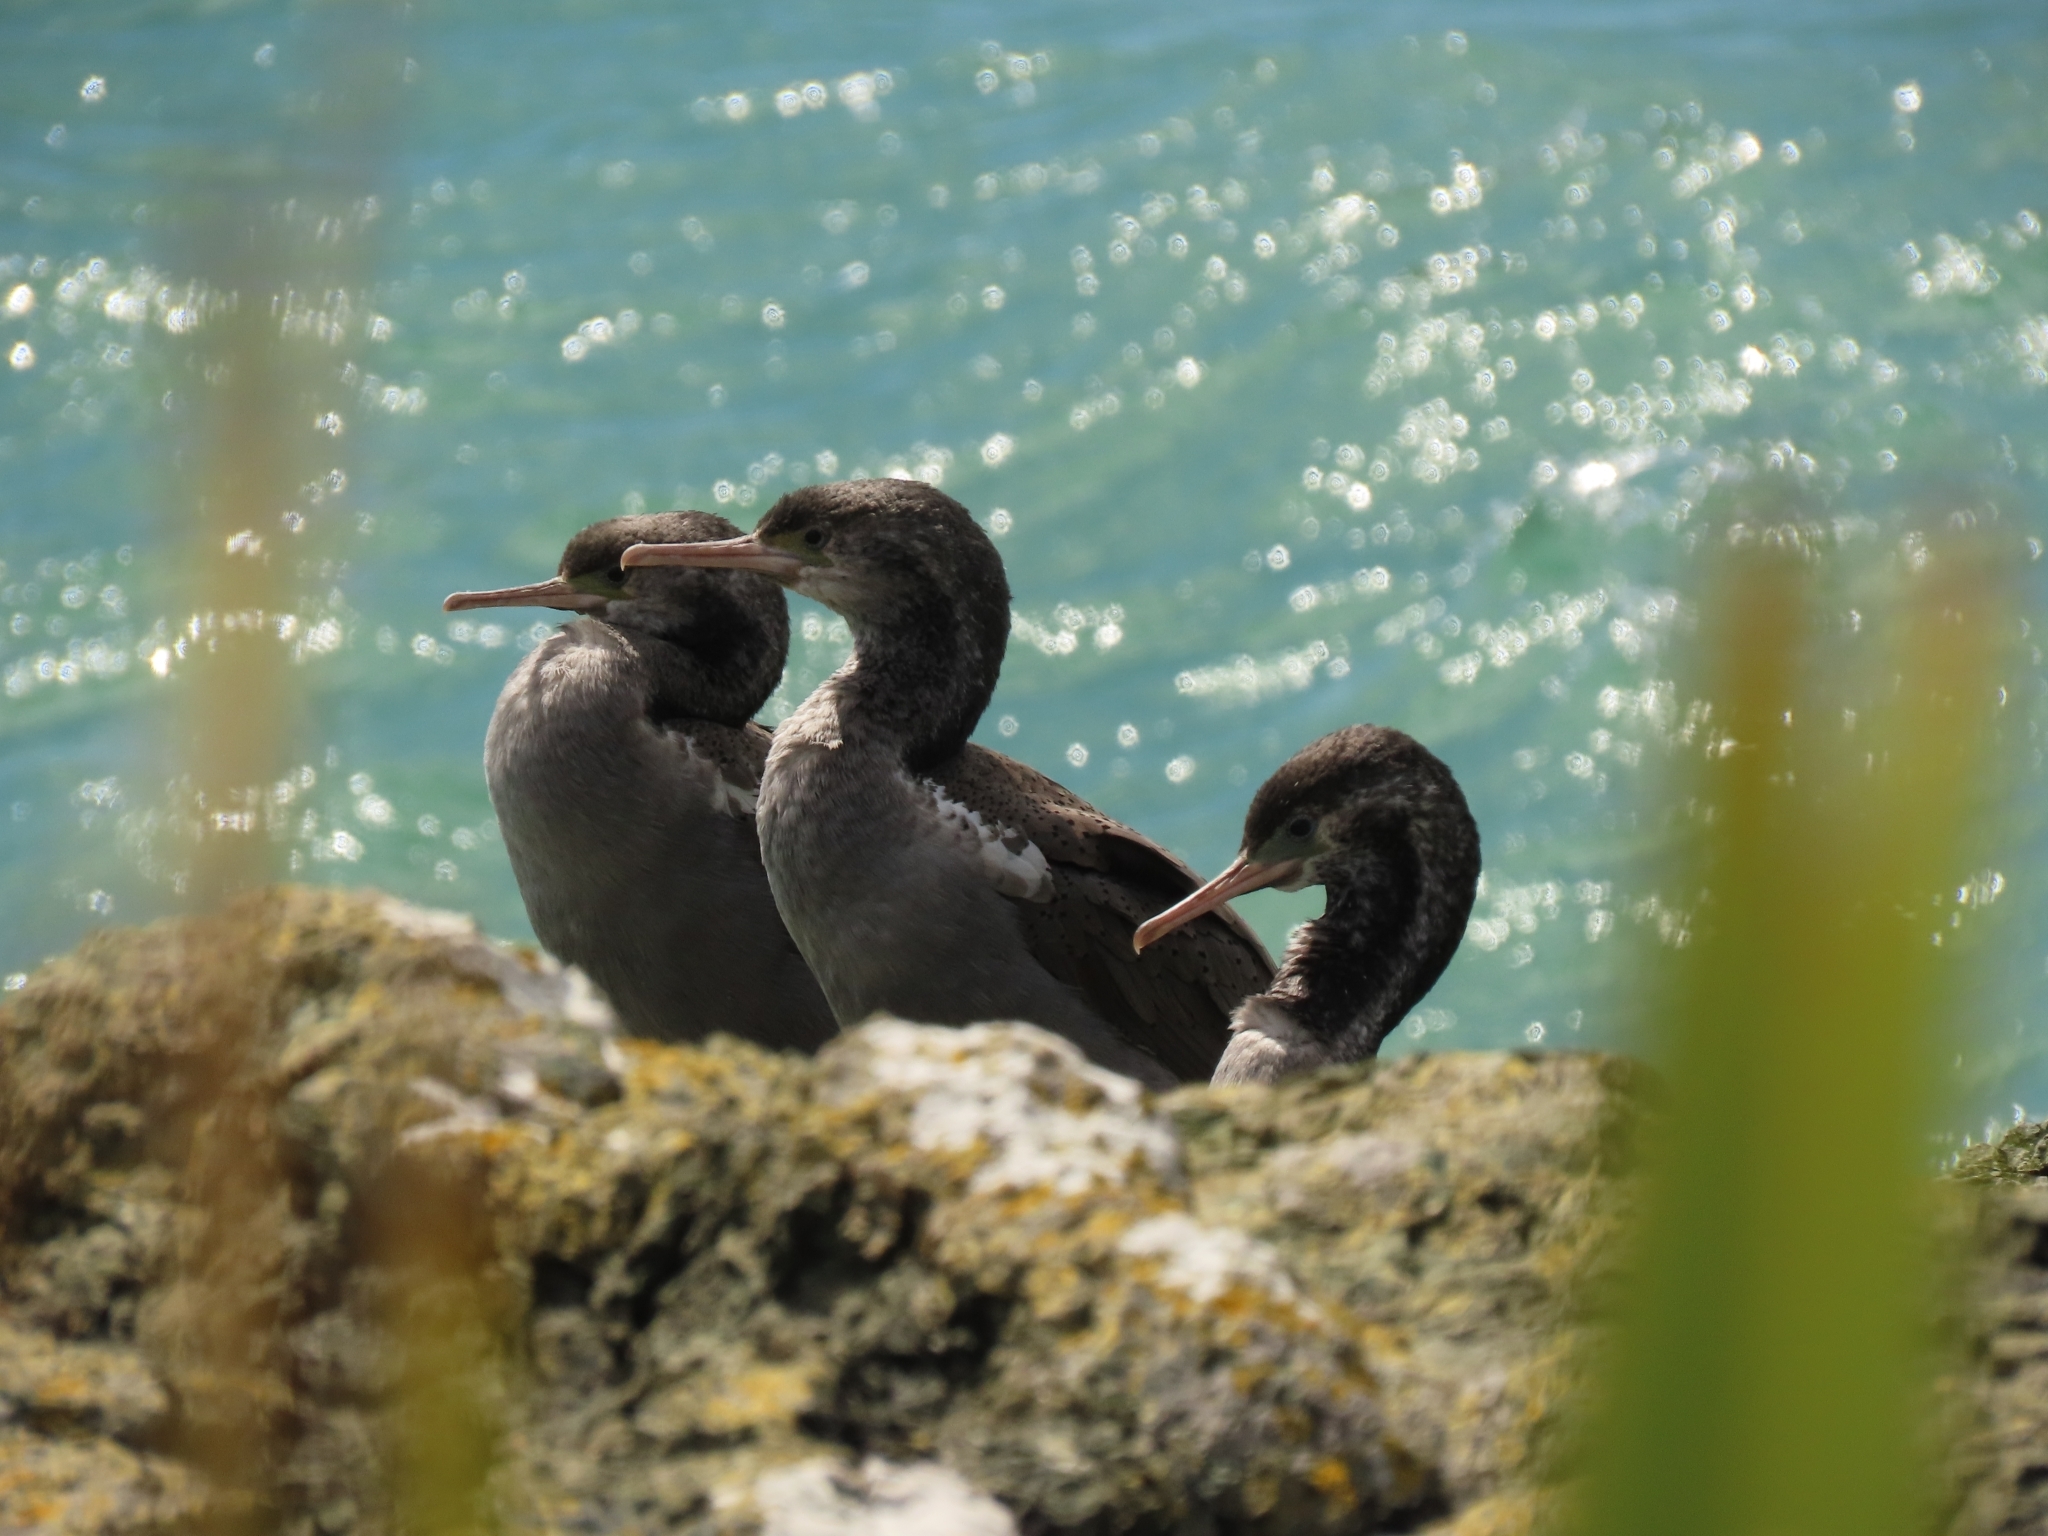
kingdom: Animalia
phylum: Chordata
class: Aves
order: Suliformes
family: Phalacrocoracidae
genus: Phalacrocorax
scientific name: Phalacrocorax punctatus
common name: Spotted shag
